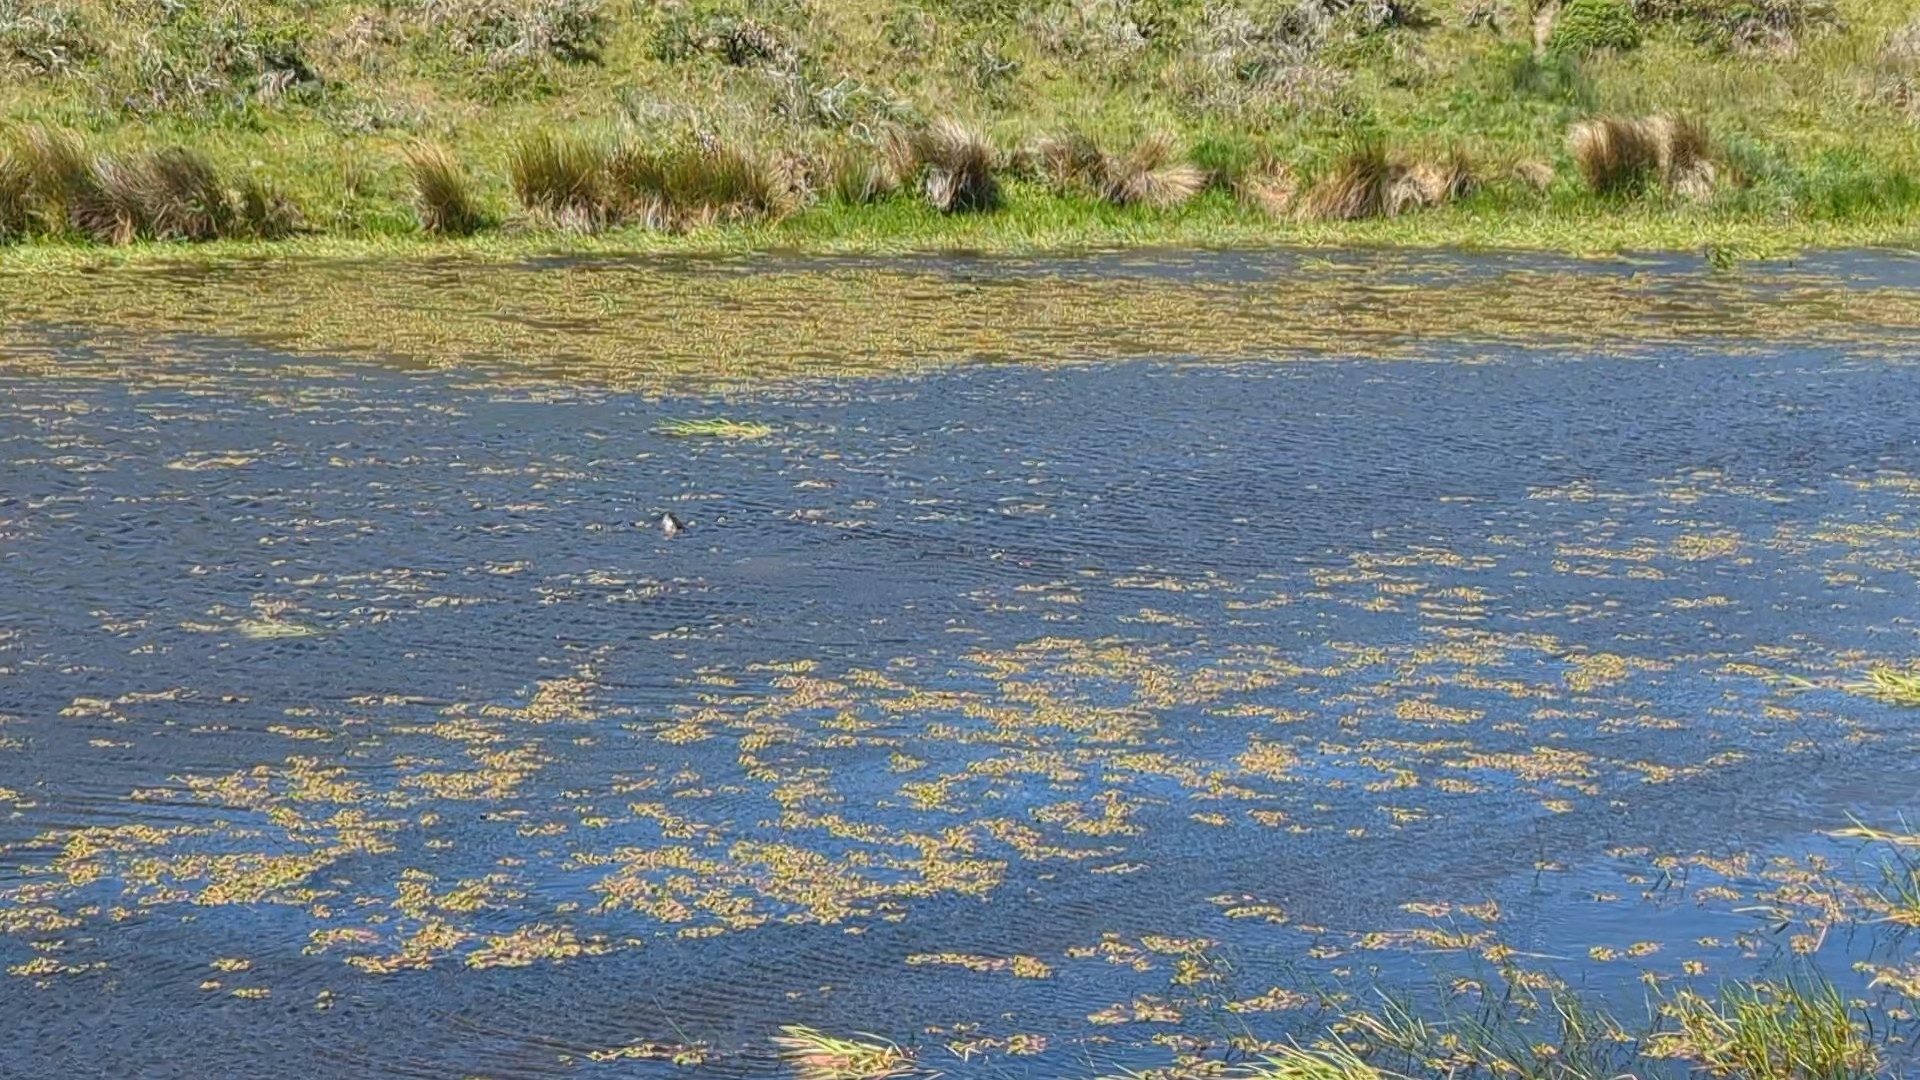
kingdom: Animalia
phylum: Chordata
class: Mammalia
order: Carnivora
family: Mustelidae
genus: Lontra
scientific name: Lontra canadensis
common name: North american river otter
